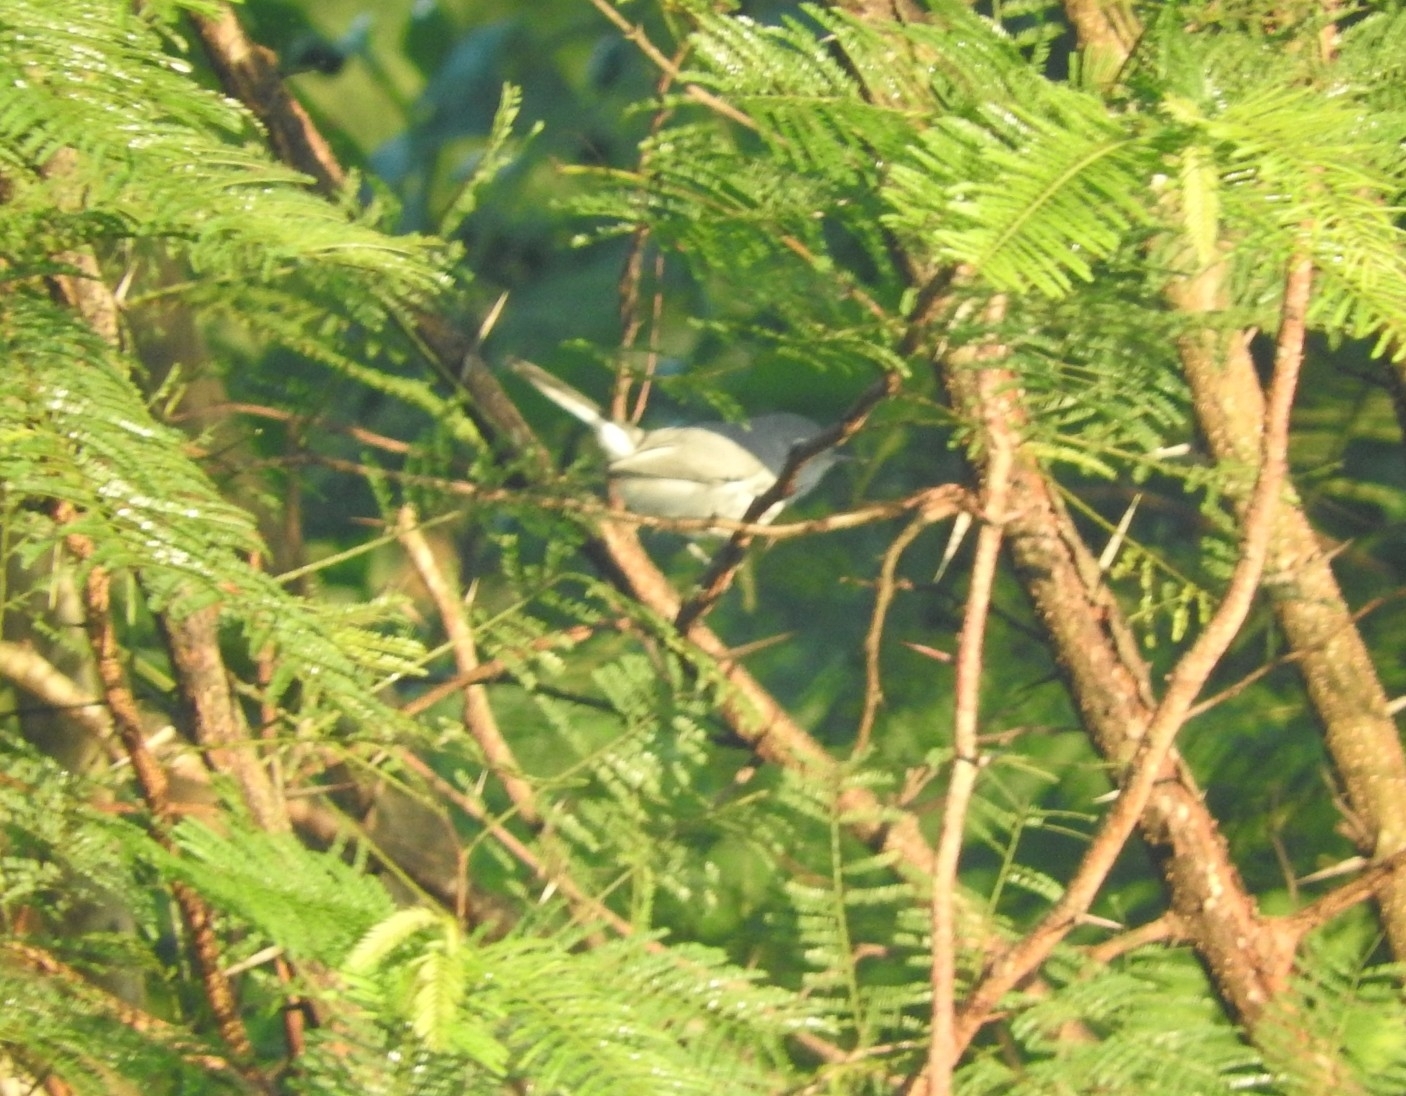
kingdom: Animalia
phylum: Chordata
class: Aves
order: Passeriformes
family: Polioptilidae
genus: Polioptila
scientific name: Polioptila caerulea
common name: Blue-gray gnatcatcher
